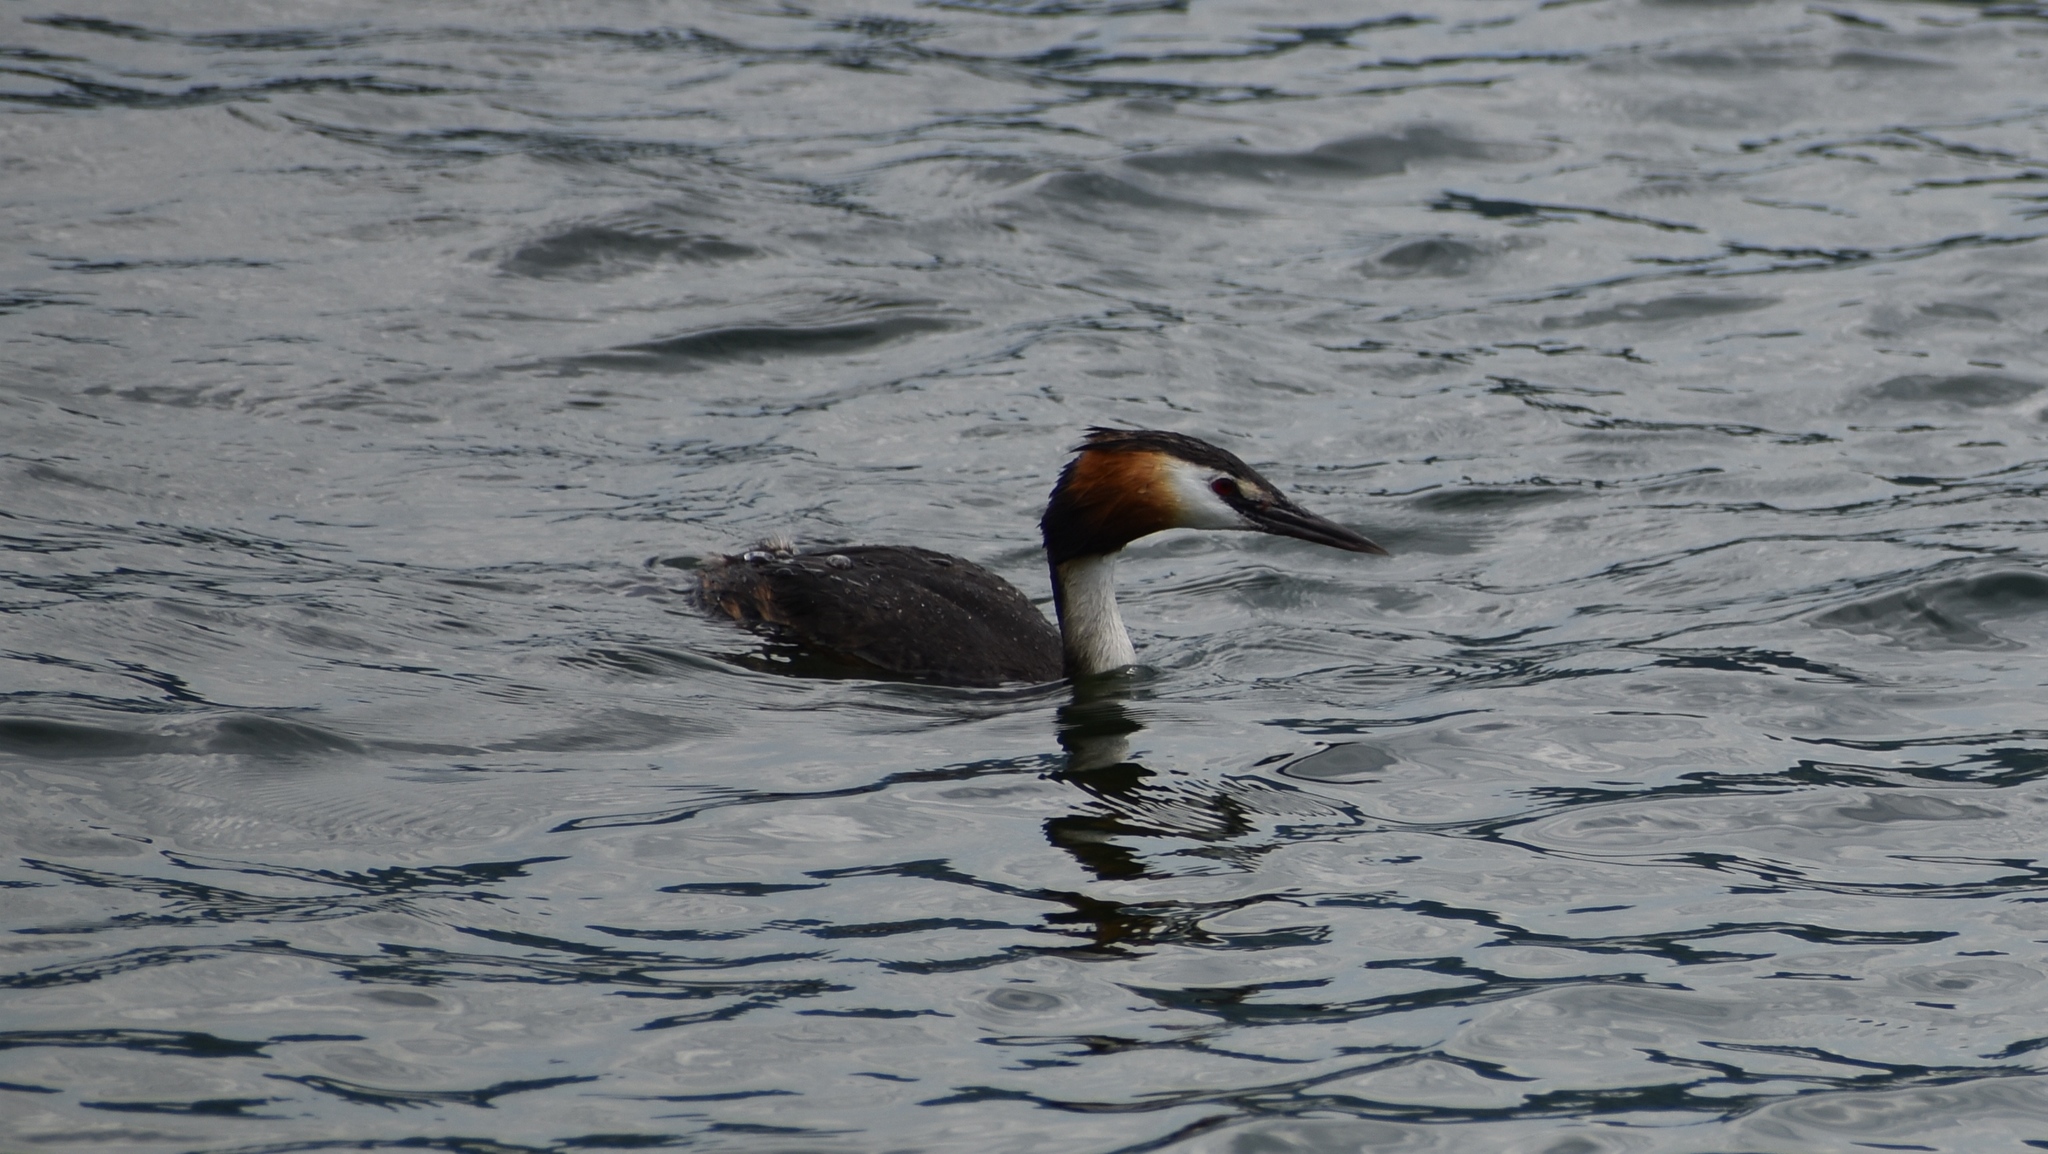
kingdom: Animalia
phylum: Chordata
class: Aves
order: Podicipediformes
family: Podicipedidae
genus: Podiceps
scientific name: Podiceps cristatus
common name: Great crested grebe
